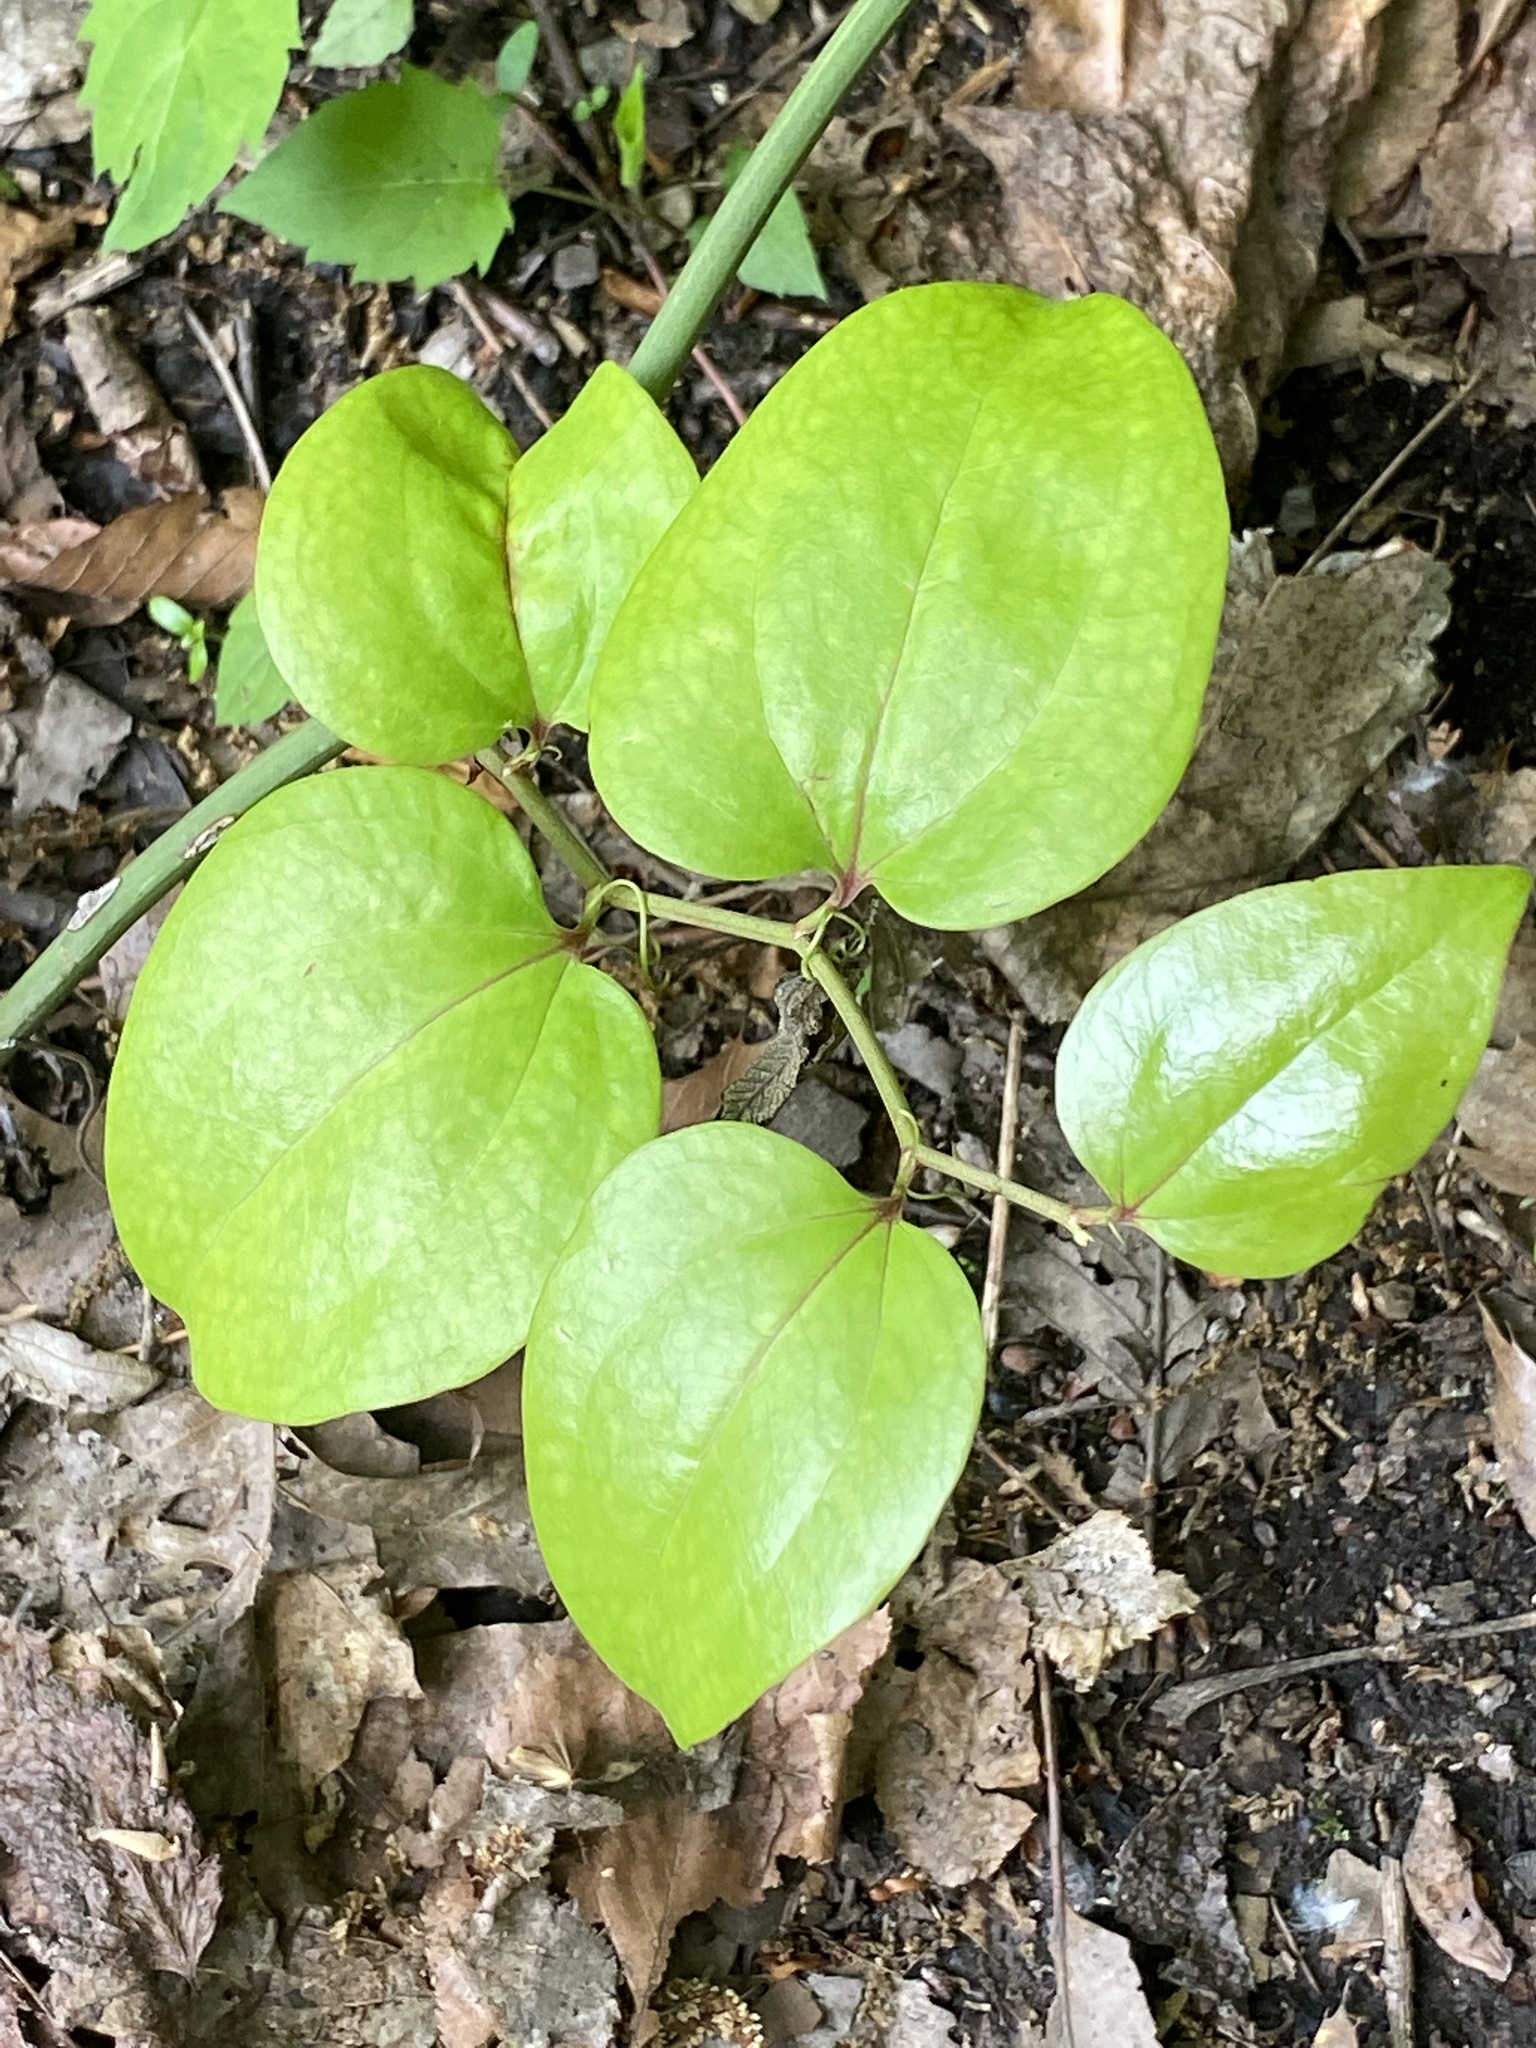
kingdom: Plantae
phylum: Tracheophyta
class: Liliopsida
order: Liliales
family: Smilacaceae
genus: Smilax
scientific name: Smilax rotundifolia
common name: Bullbriar
